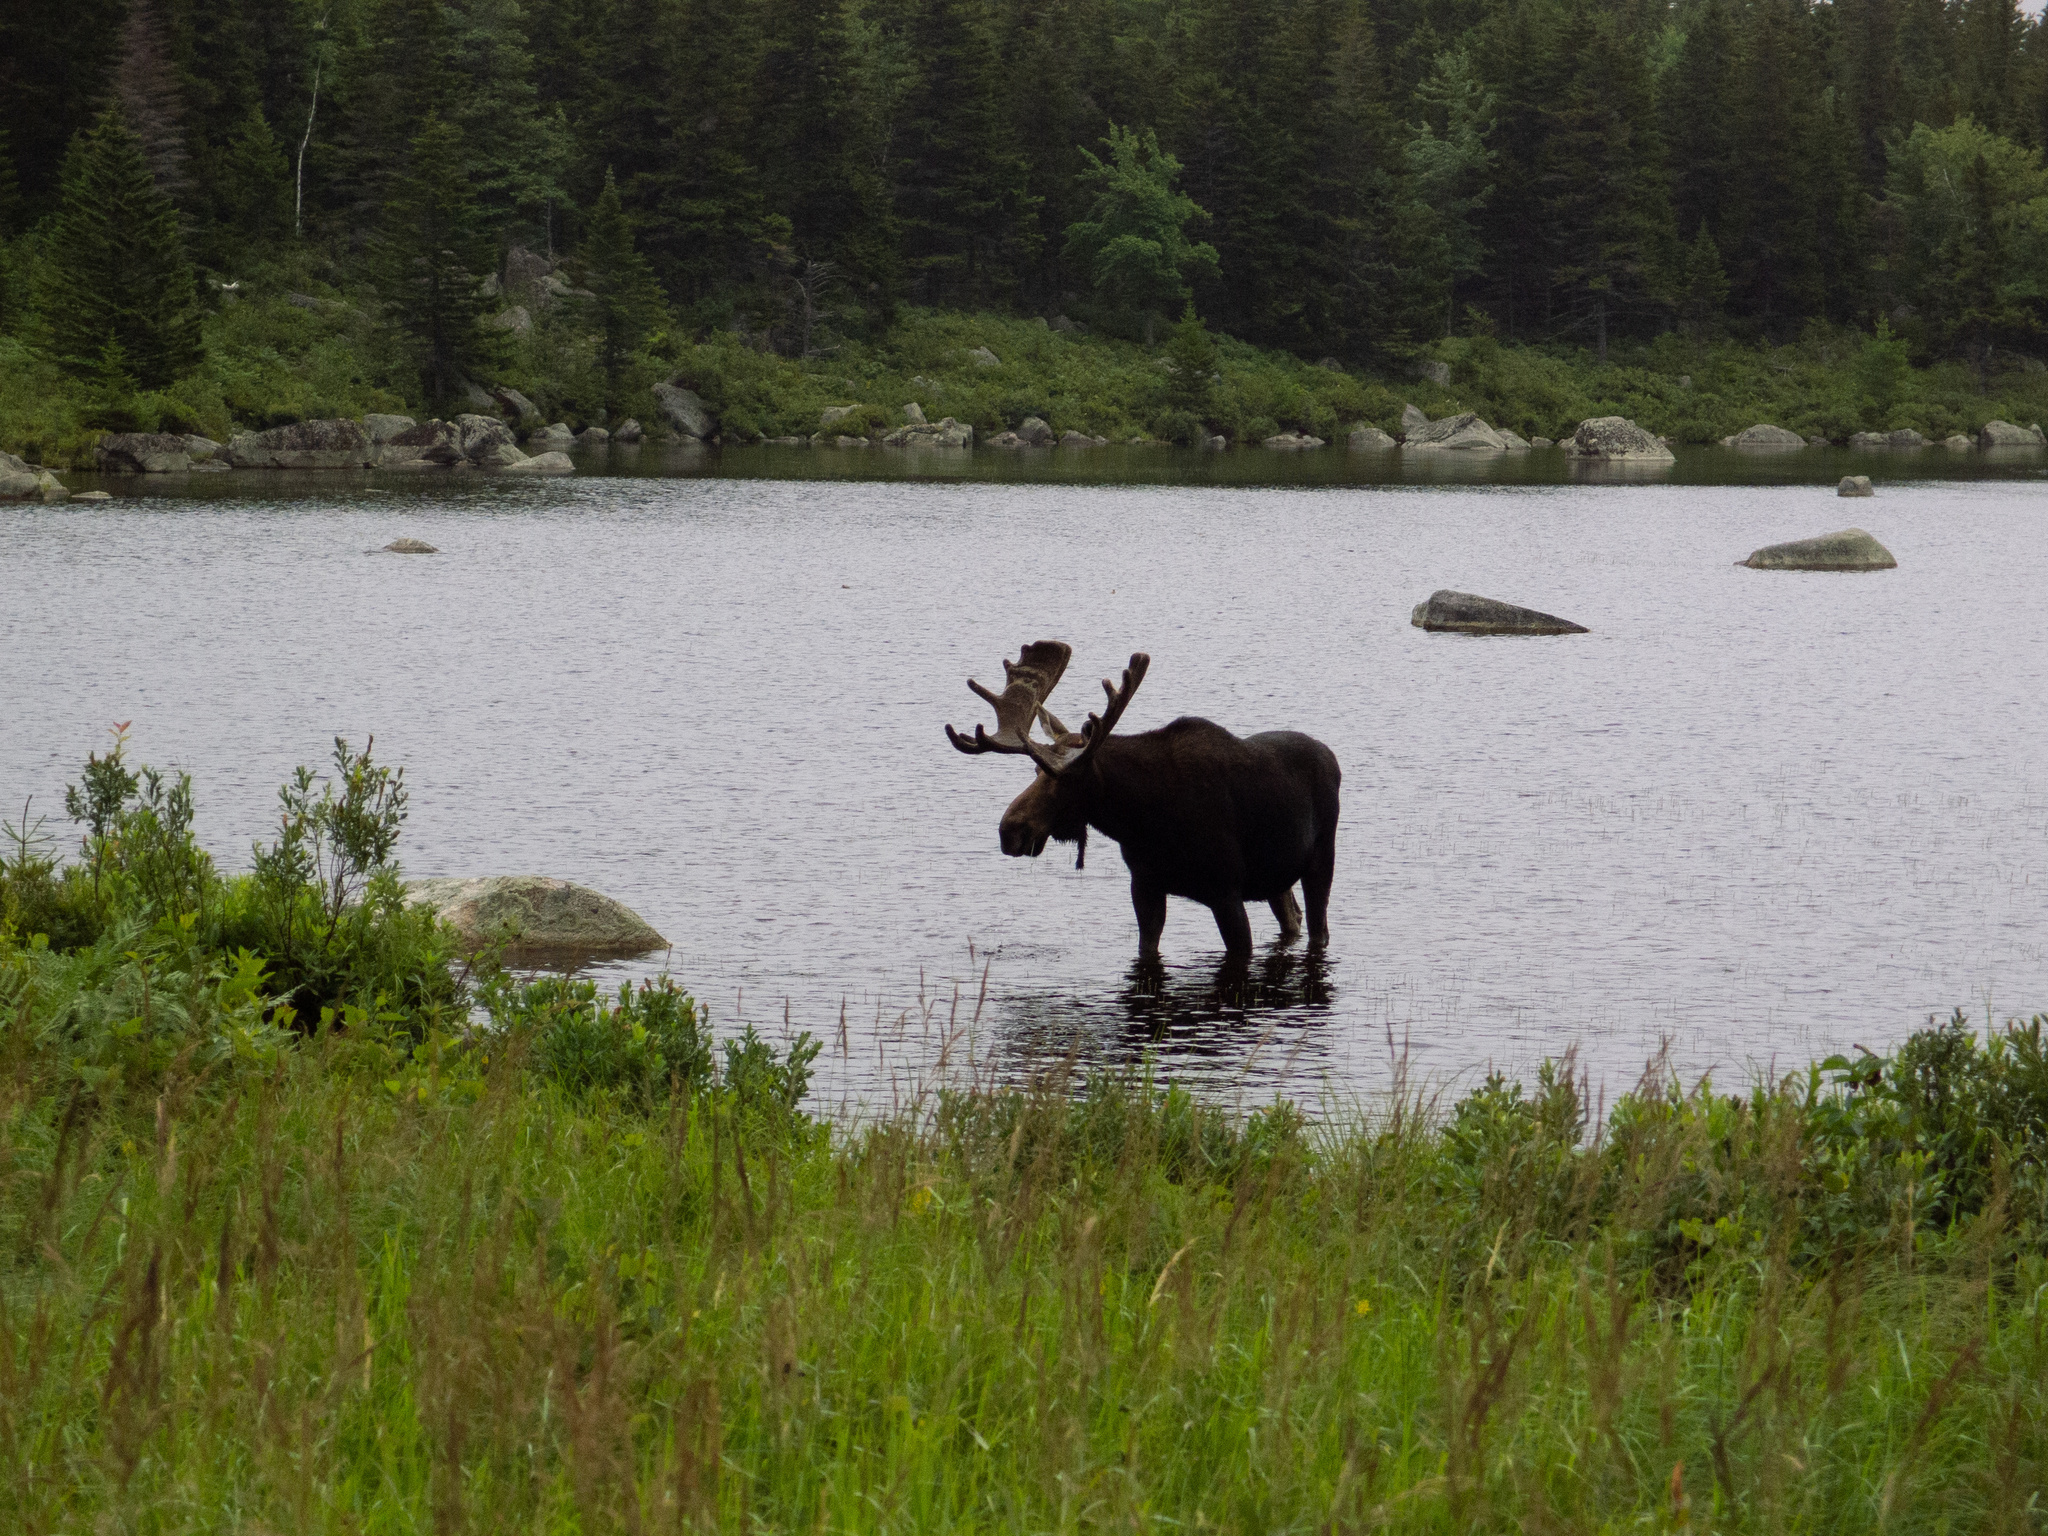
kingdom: Animalia
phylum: Chordata
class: Mammalia
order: Artiodactyla
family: Cervidae
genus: Alces
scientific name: Alces alces
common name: Moose
